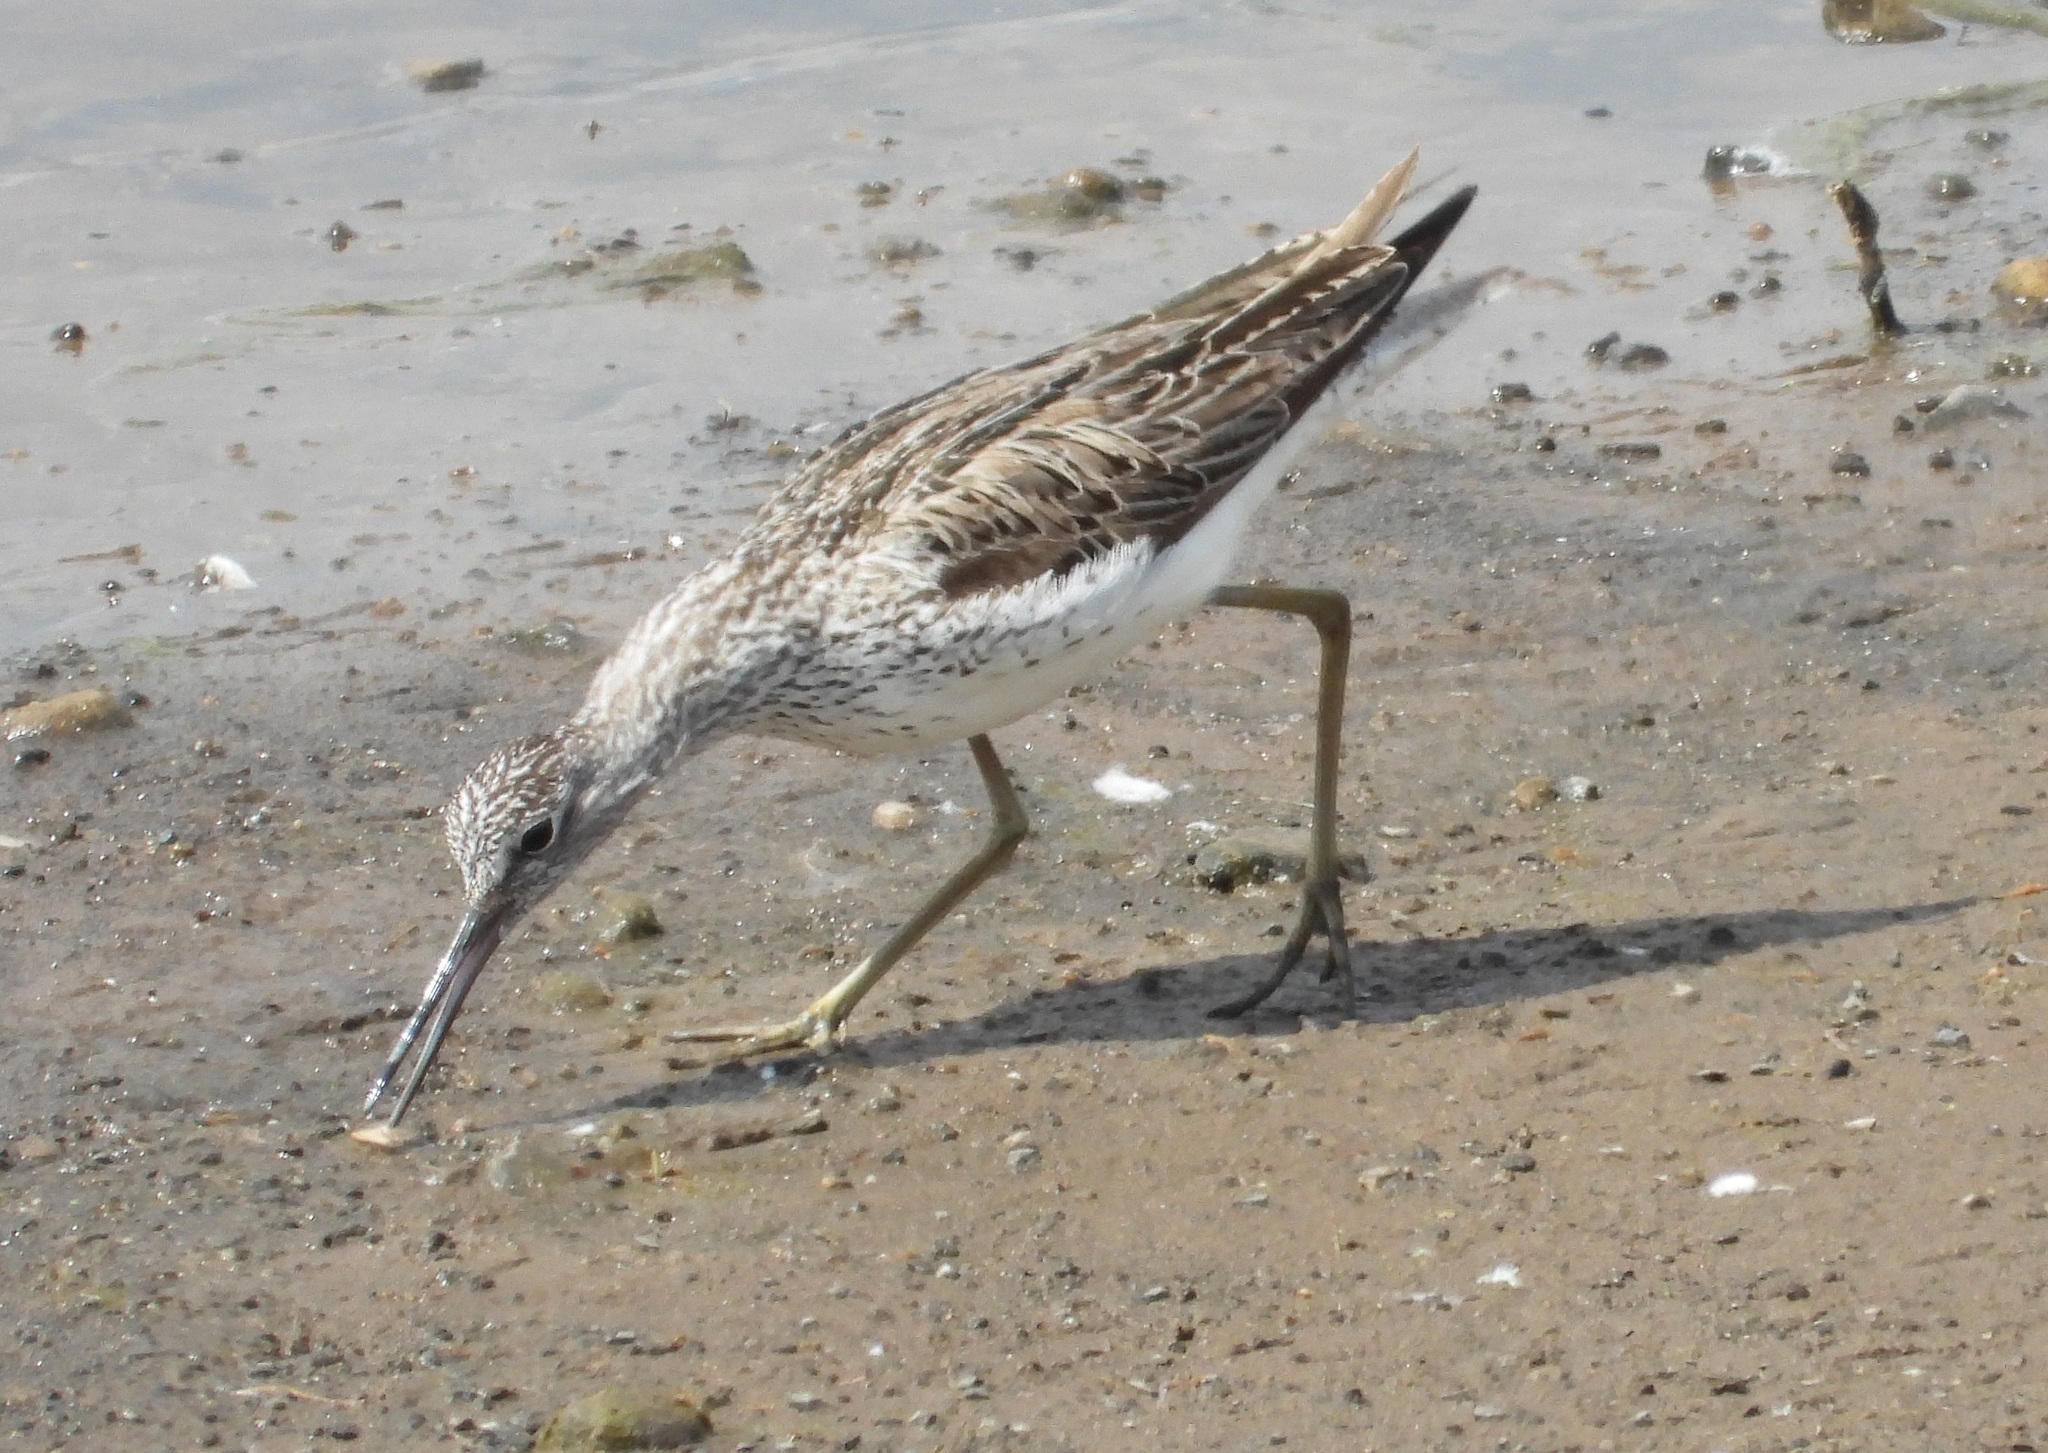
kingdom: Animalia
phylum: Chordata
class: Aves
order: Charadriiformes
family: Scolopacidae
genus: Tringa
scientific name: Tringa nebularia
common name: Common greenshank
